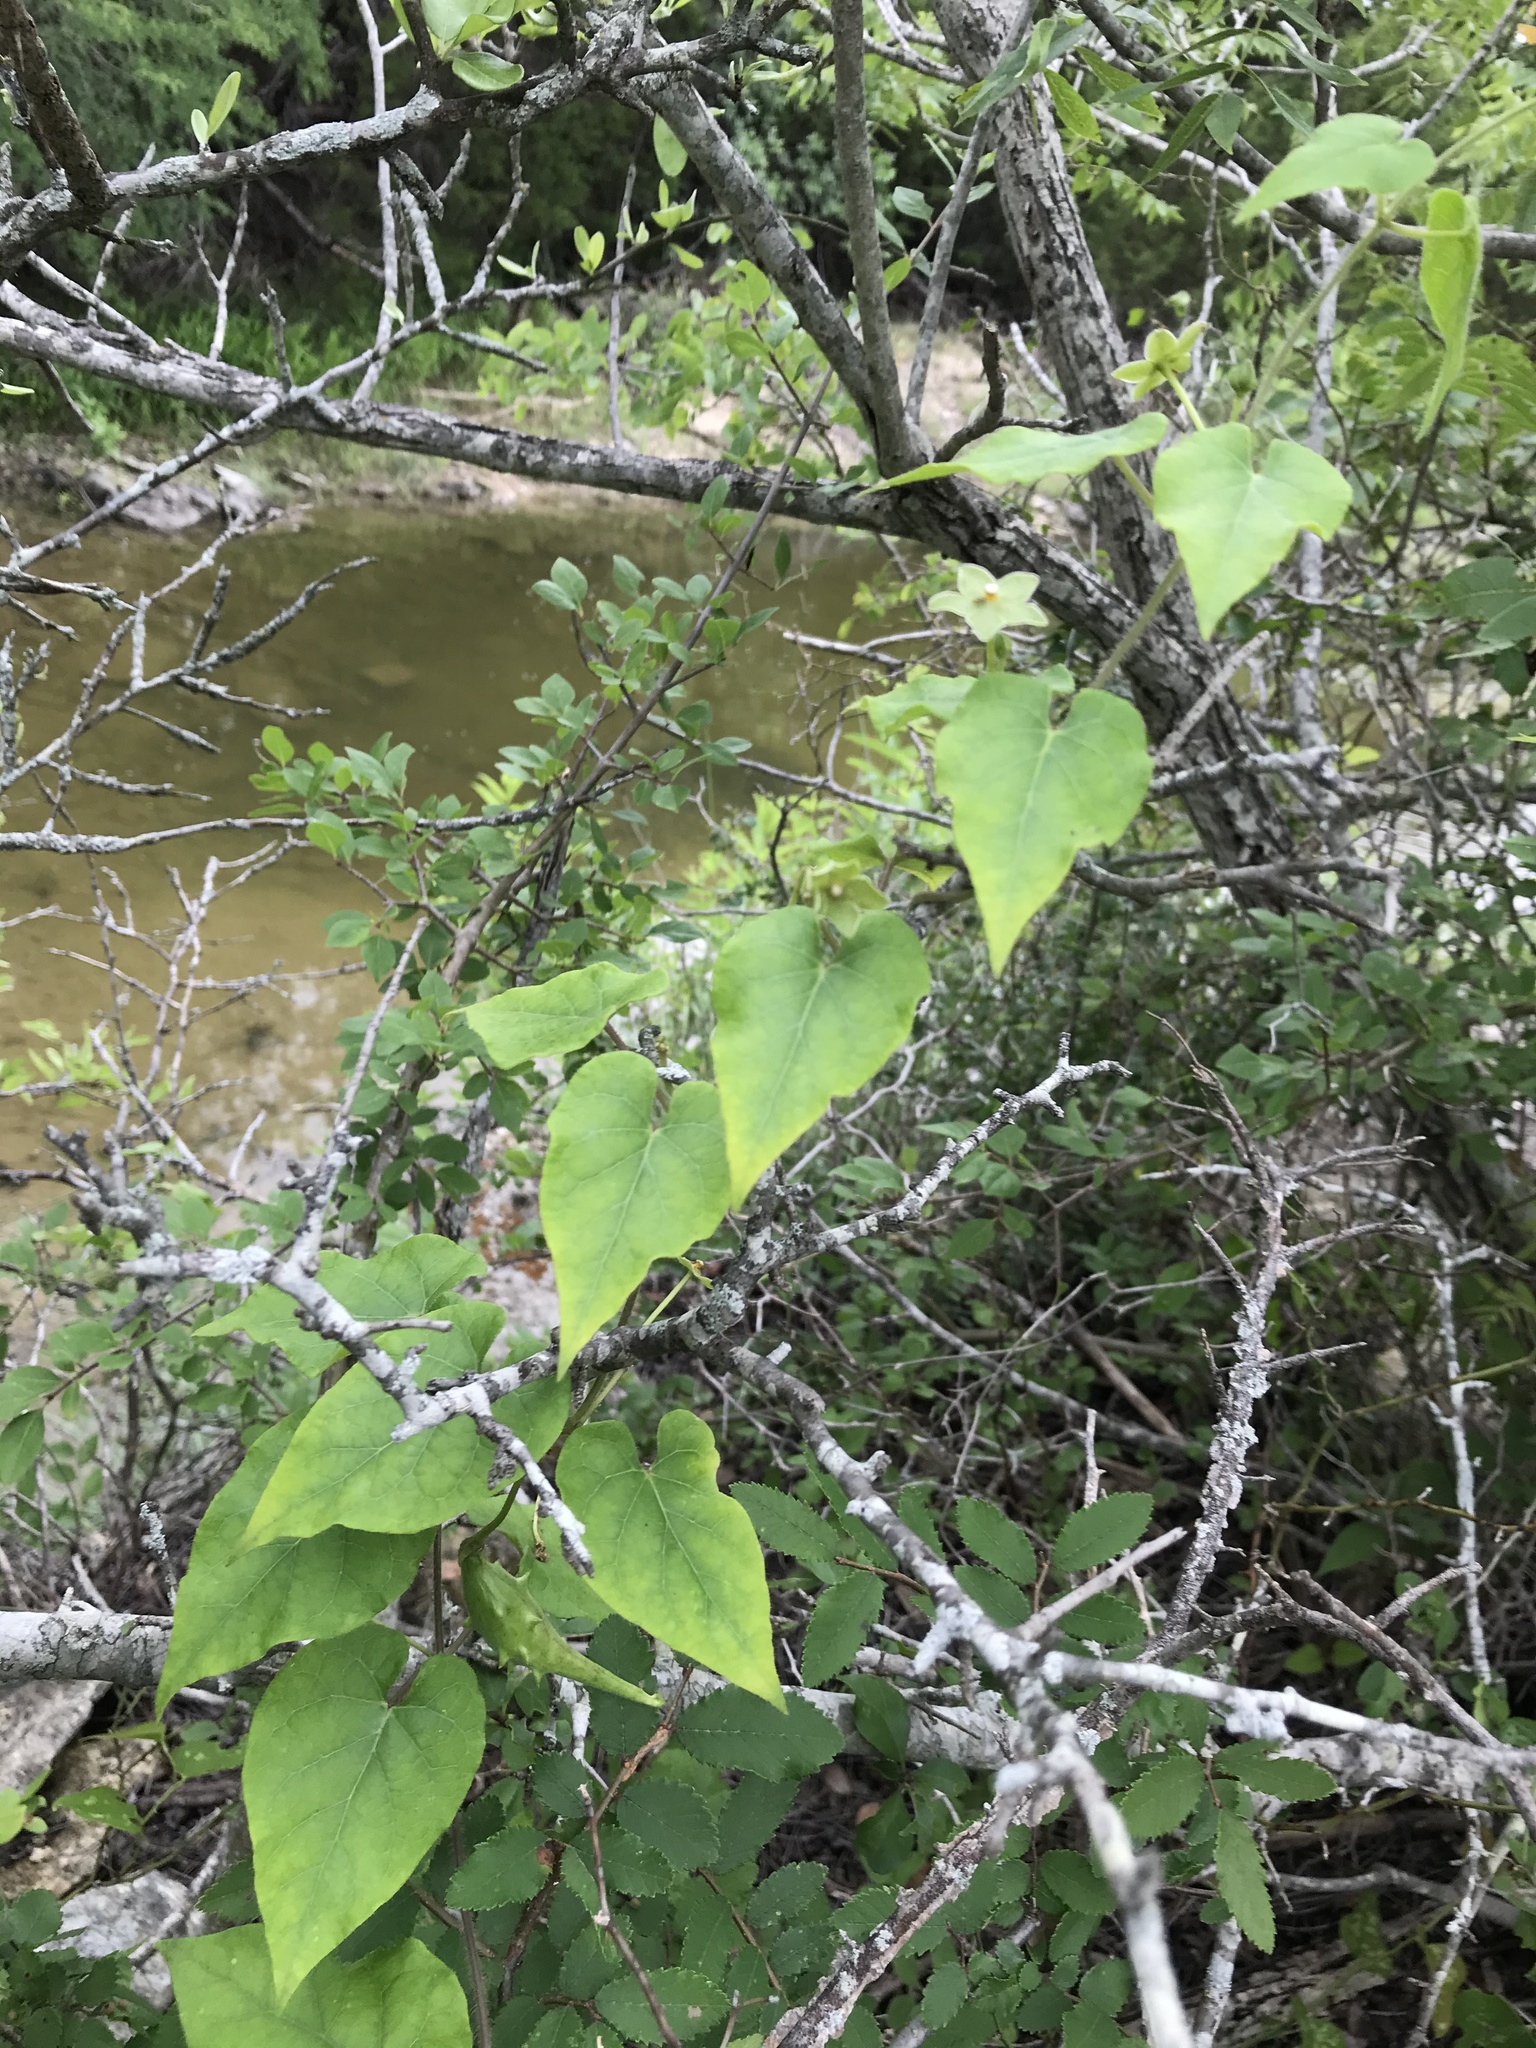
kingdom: Plantae
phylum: Tracheophyta
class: Magnoliopsida
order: Gentianales
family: Apocynaceae
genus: Dictyanthus
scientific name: Dictyanthus reticulatus
